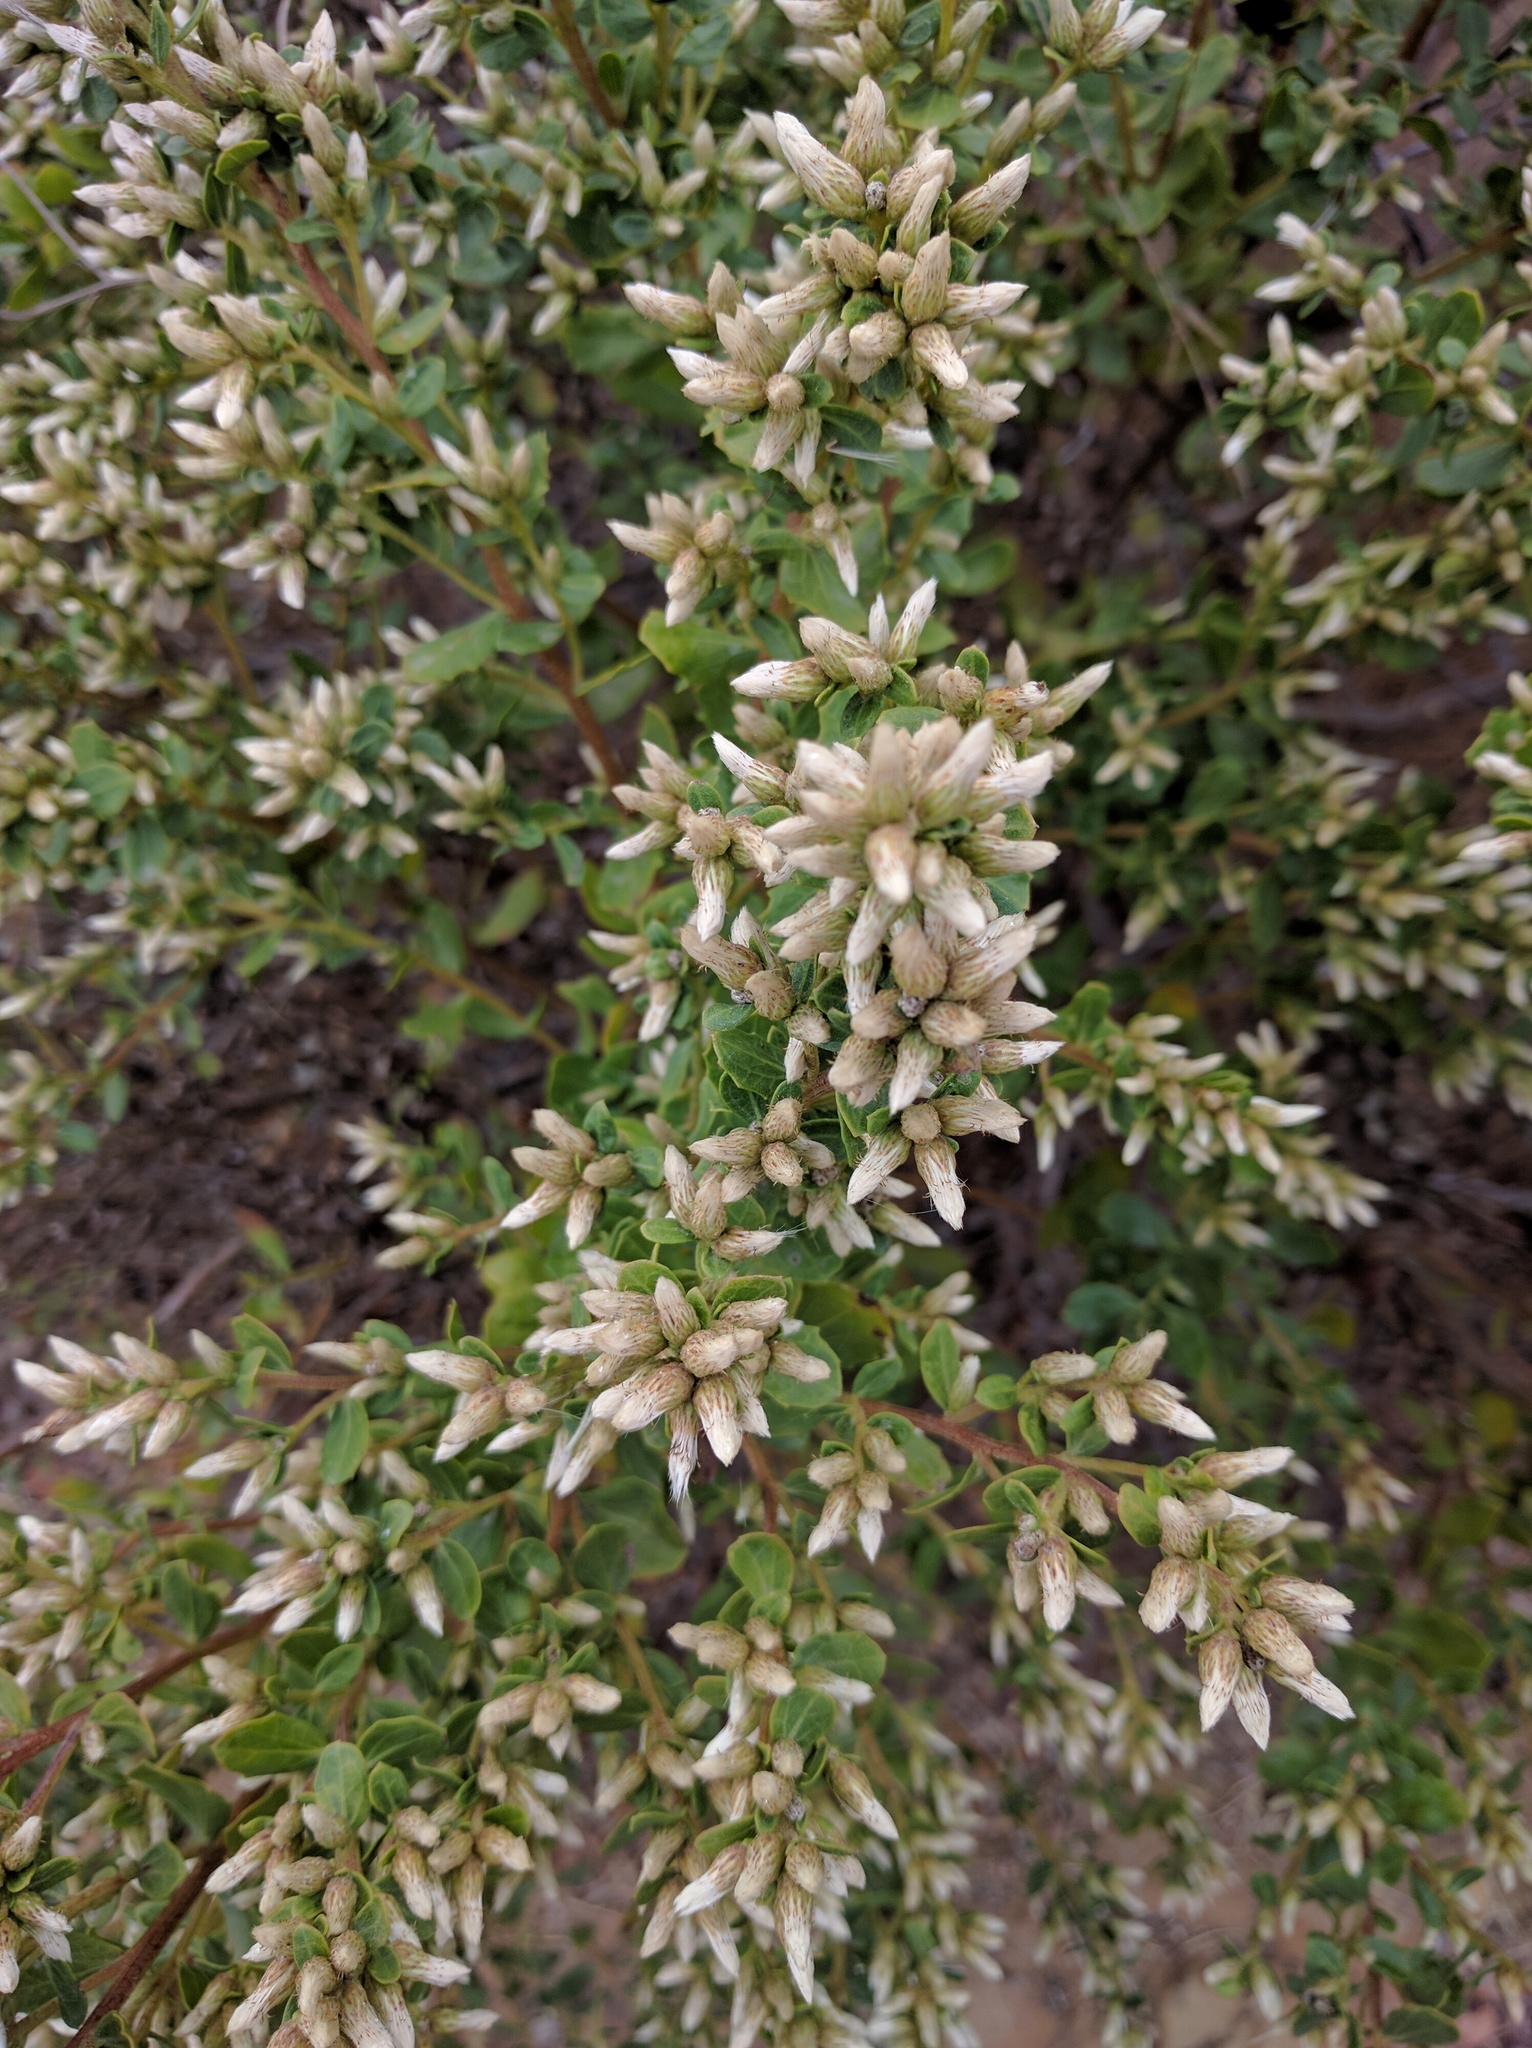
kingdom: Plantae
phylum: Tracheophyta
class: Magnoliopsida
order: Asterales
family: Asteraceae
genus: Baccharis
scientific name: Baccharis pilularis
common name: Coyotebrush
